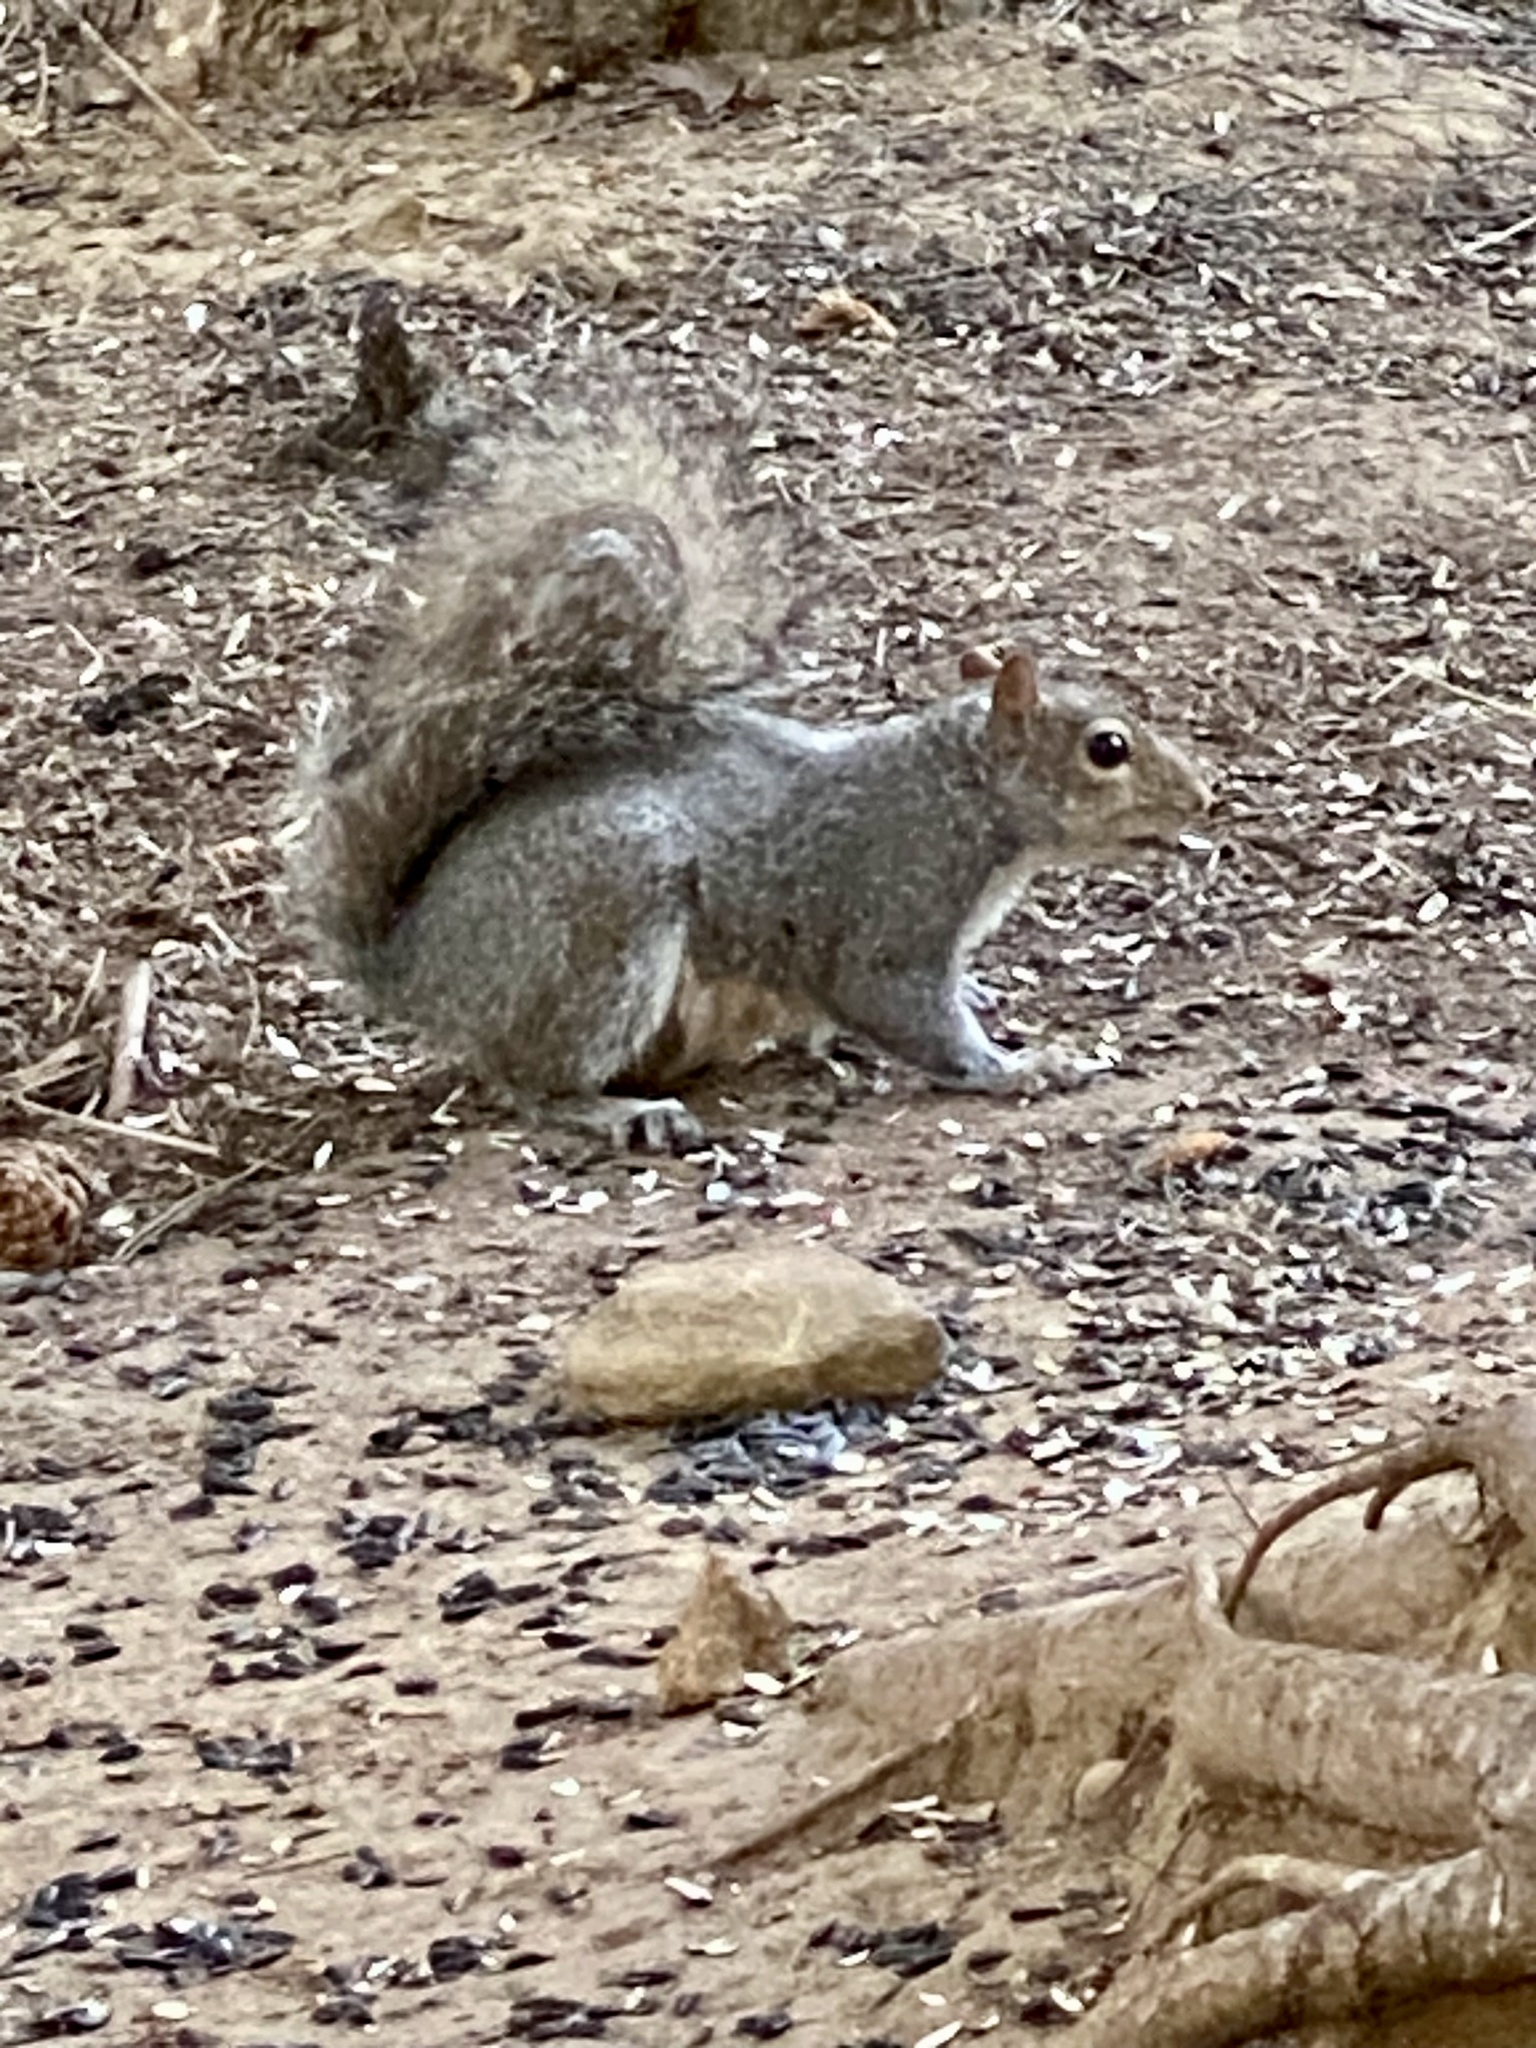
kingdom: Animalia
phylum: Chordata
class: Mammalia
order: Rodentia
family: Sciuridae
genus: Sciurus
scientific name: Sciurus carolinensis
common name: Eastern gray squirrel
